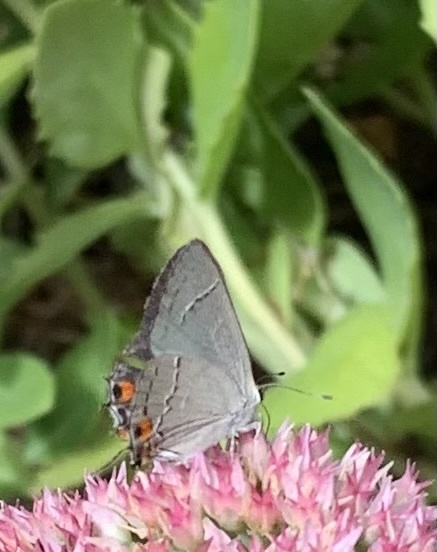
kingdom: Animalia
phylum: Arthropoda
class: Insecta
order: Lepidoptera
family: Lycaenidae
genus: Strymon
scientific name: Strymon melinus
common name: Gray hairstreak
